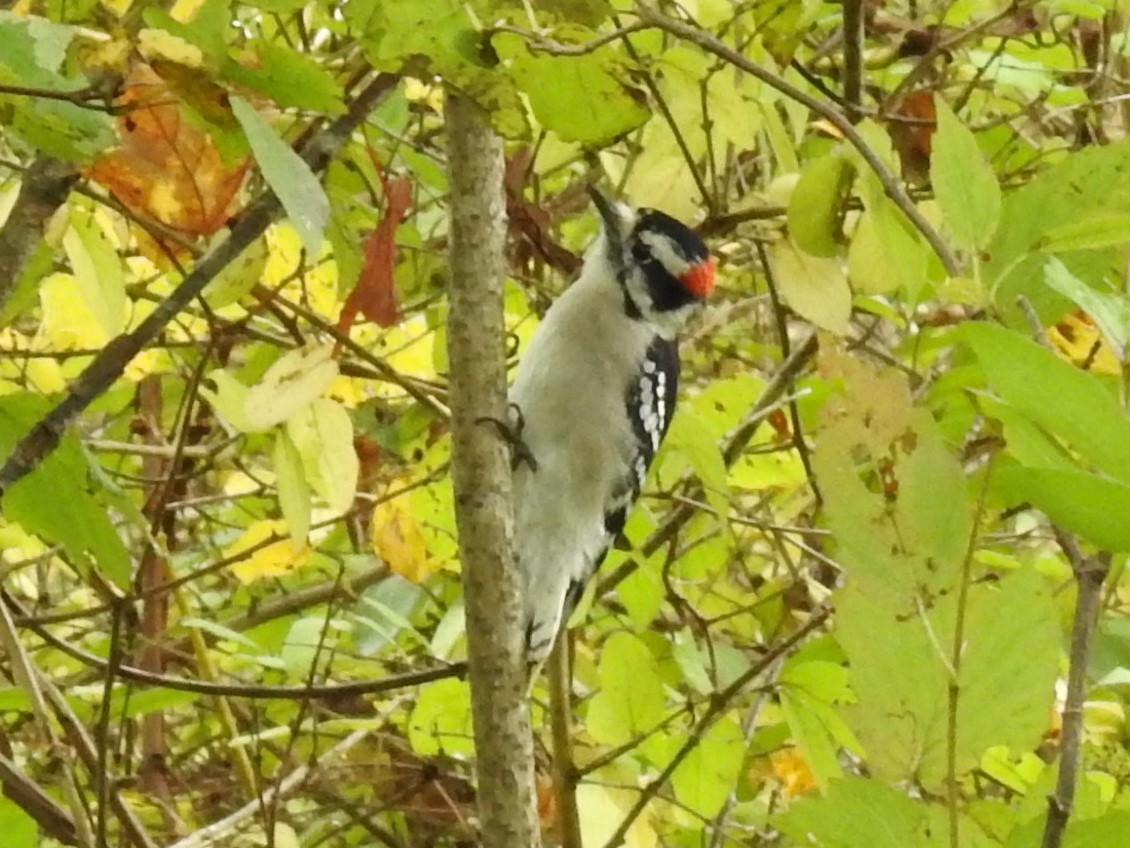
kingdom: Animalia
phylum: Chordata
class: Aves
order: Piciformes
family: Picidae
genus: Dryobates
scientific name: Dryobates pubescens
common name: Downy woodpecker
